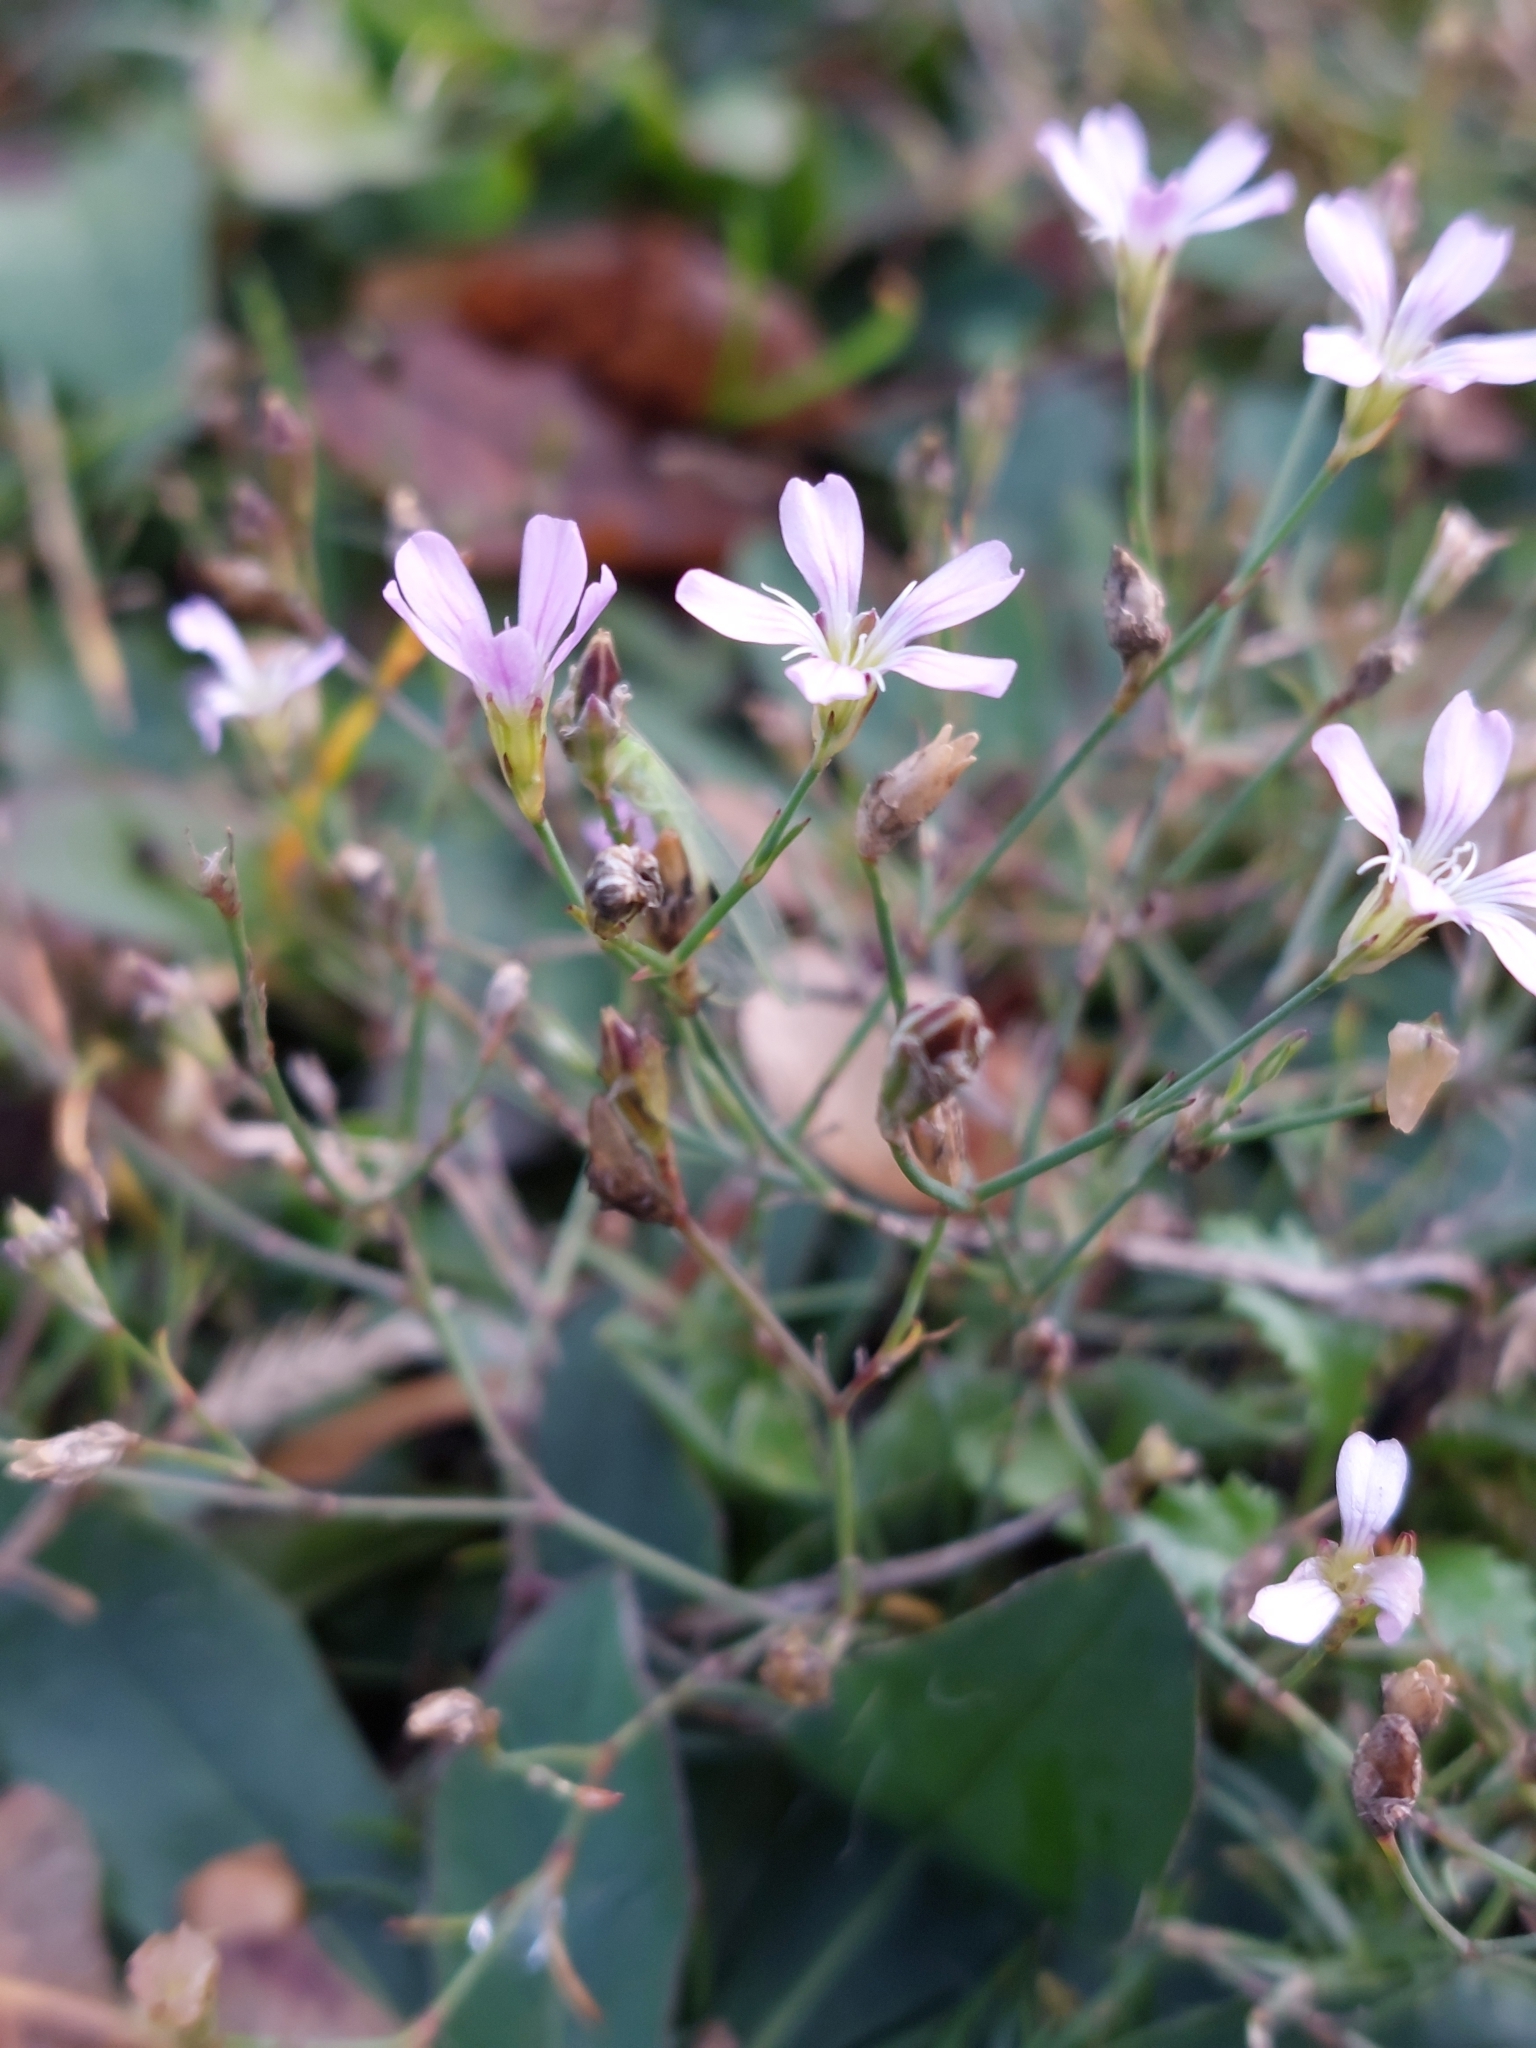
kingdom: Plantae
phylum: Tracheophyta
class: Magnoliopsida
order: Caryophyllales
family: Caryophyllaceae
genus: Petrorhagia
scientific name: Petrorhagia saxifraga
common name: Tunicflower
